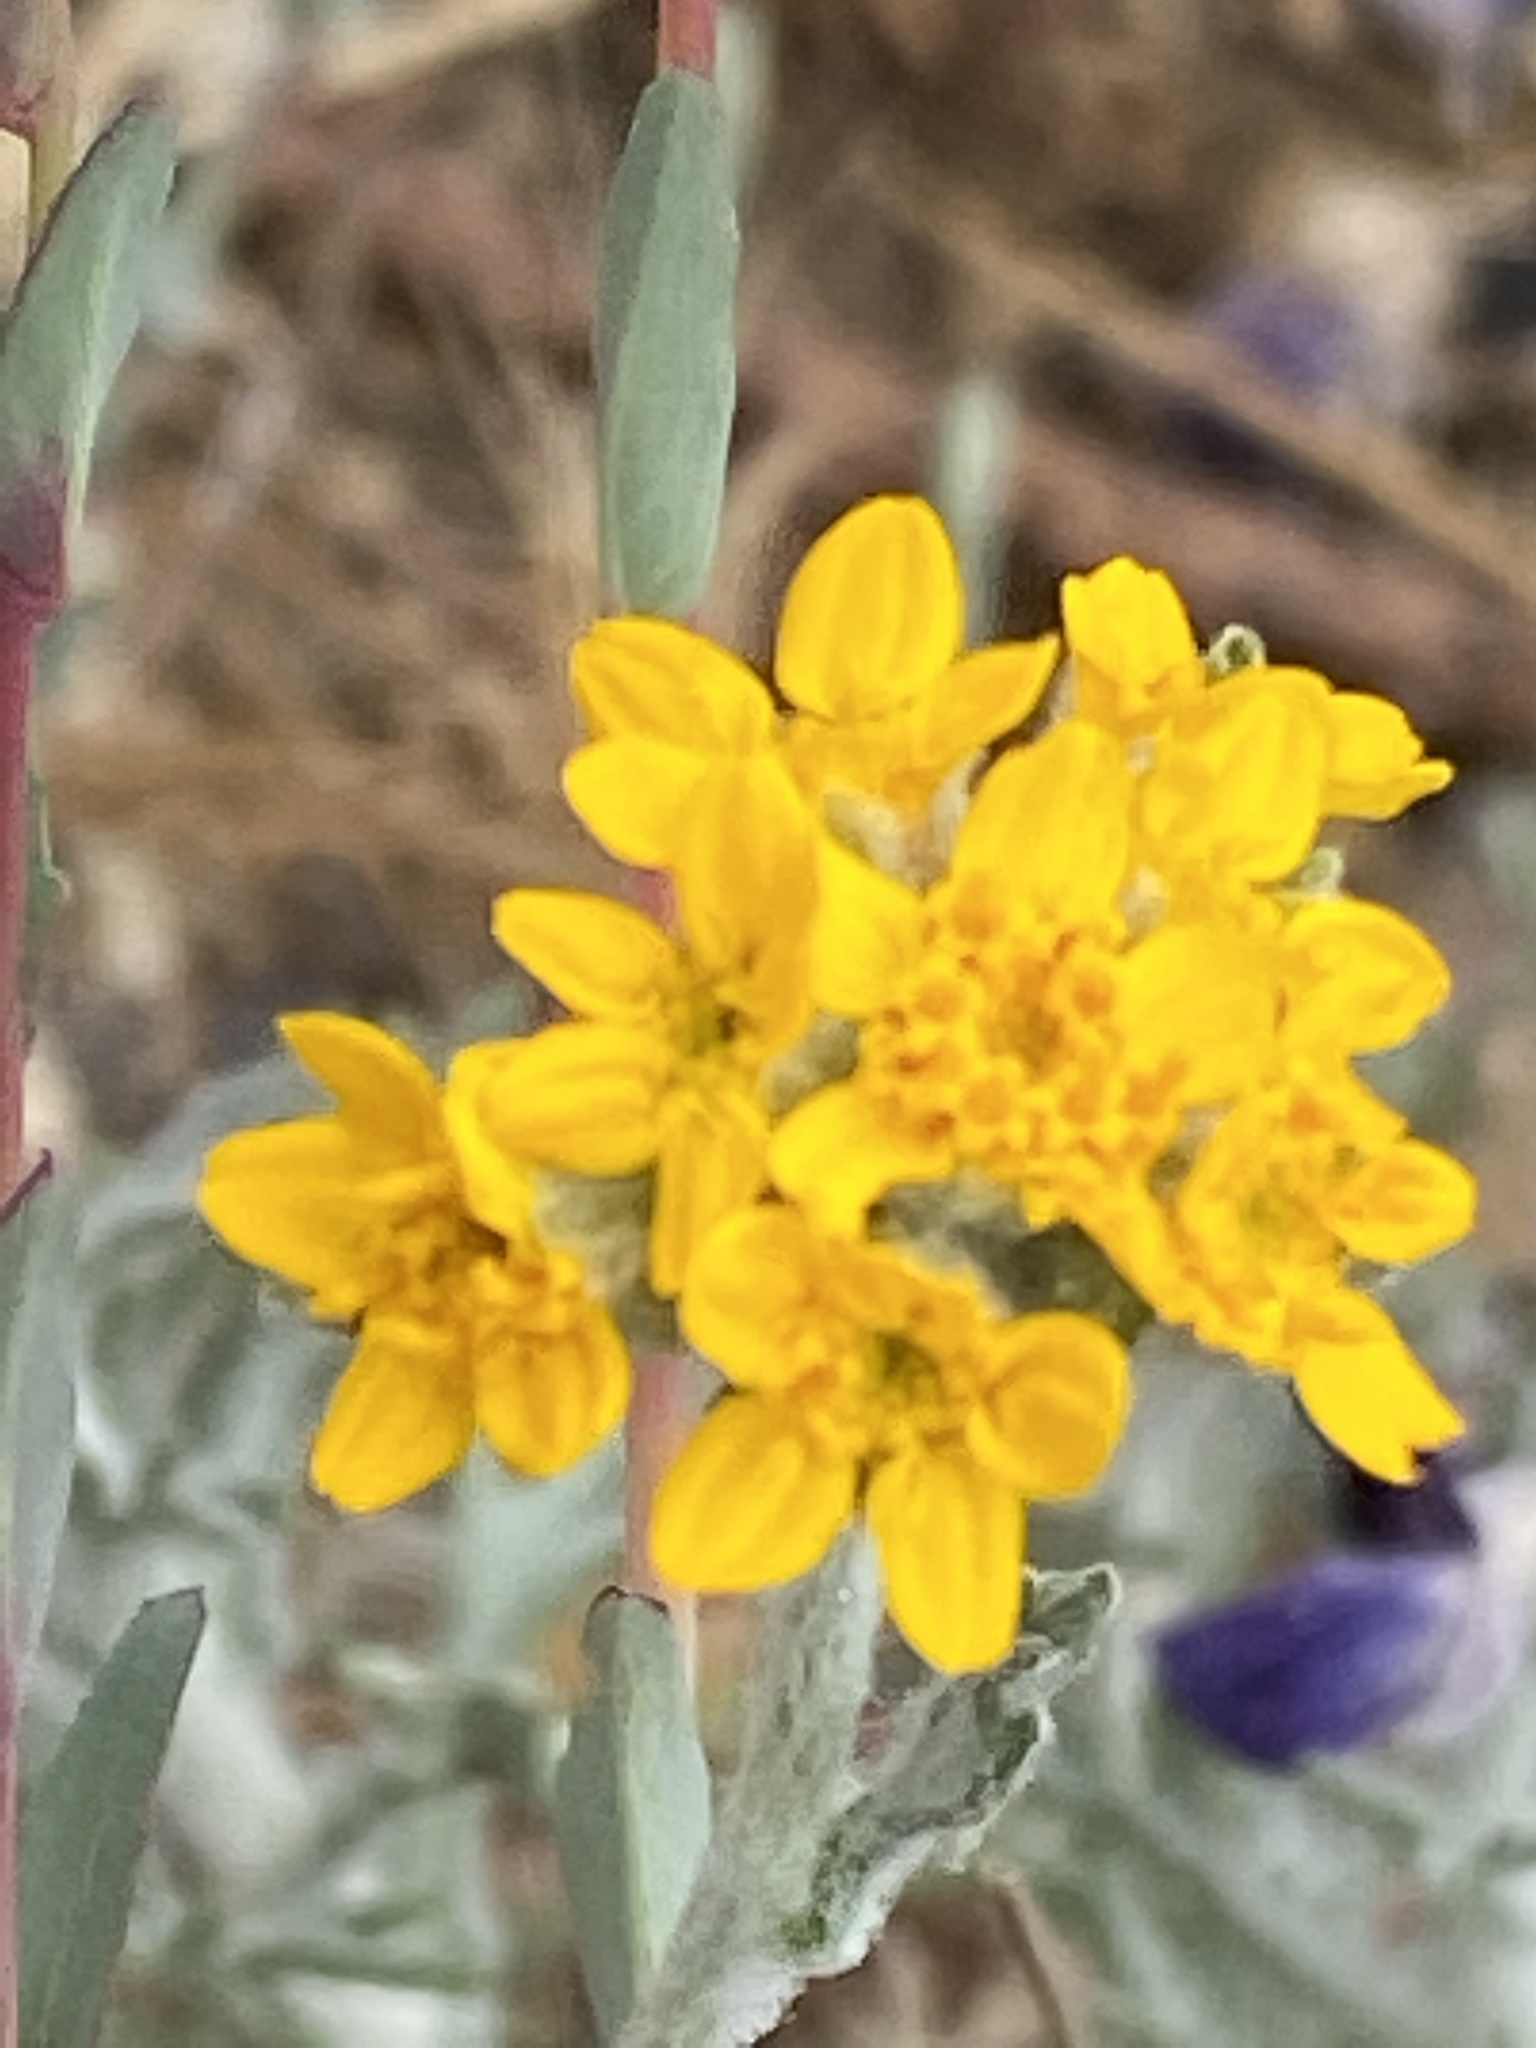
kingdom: Plantae
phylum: Tracheophyta
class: Magnoliopsida
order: Asterales
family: Asteraceae
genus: Eriophyllum
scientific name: Eriophyllum confertiflorum
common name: Golden-yarrow
